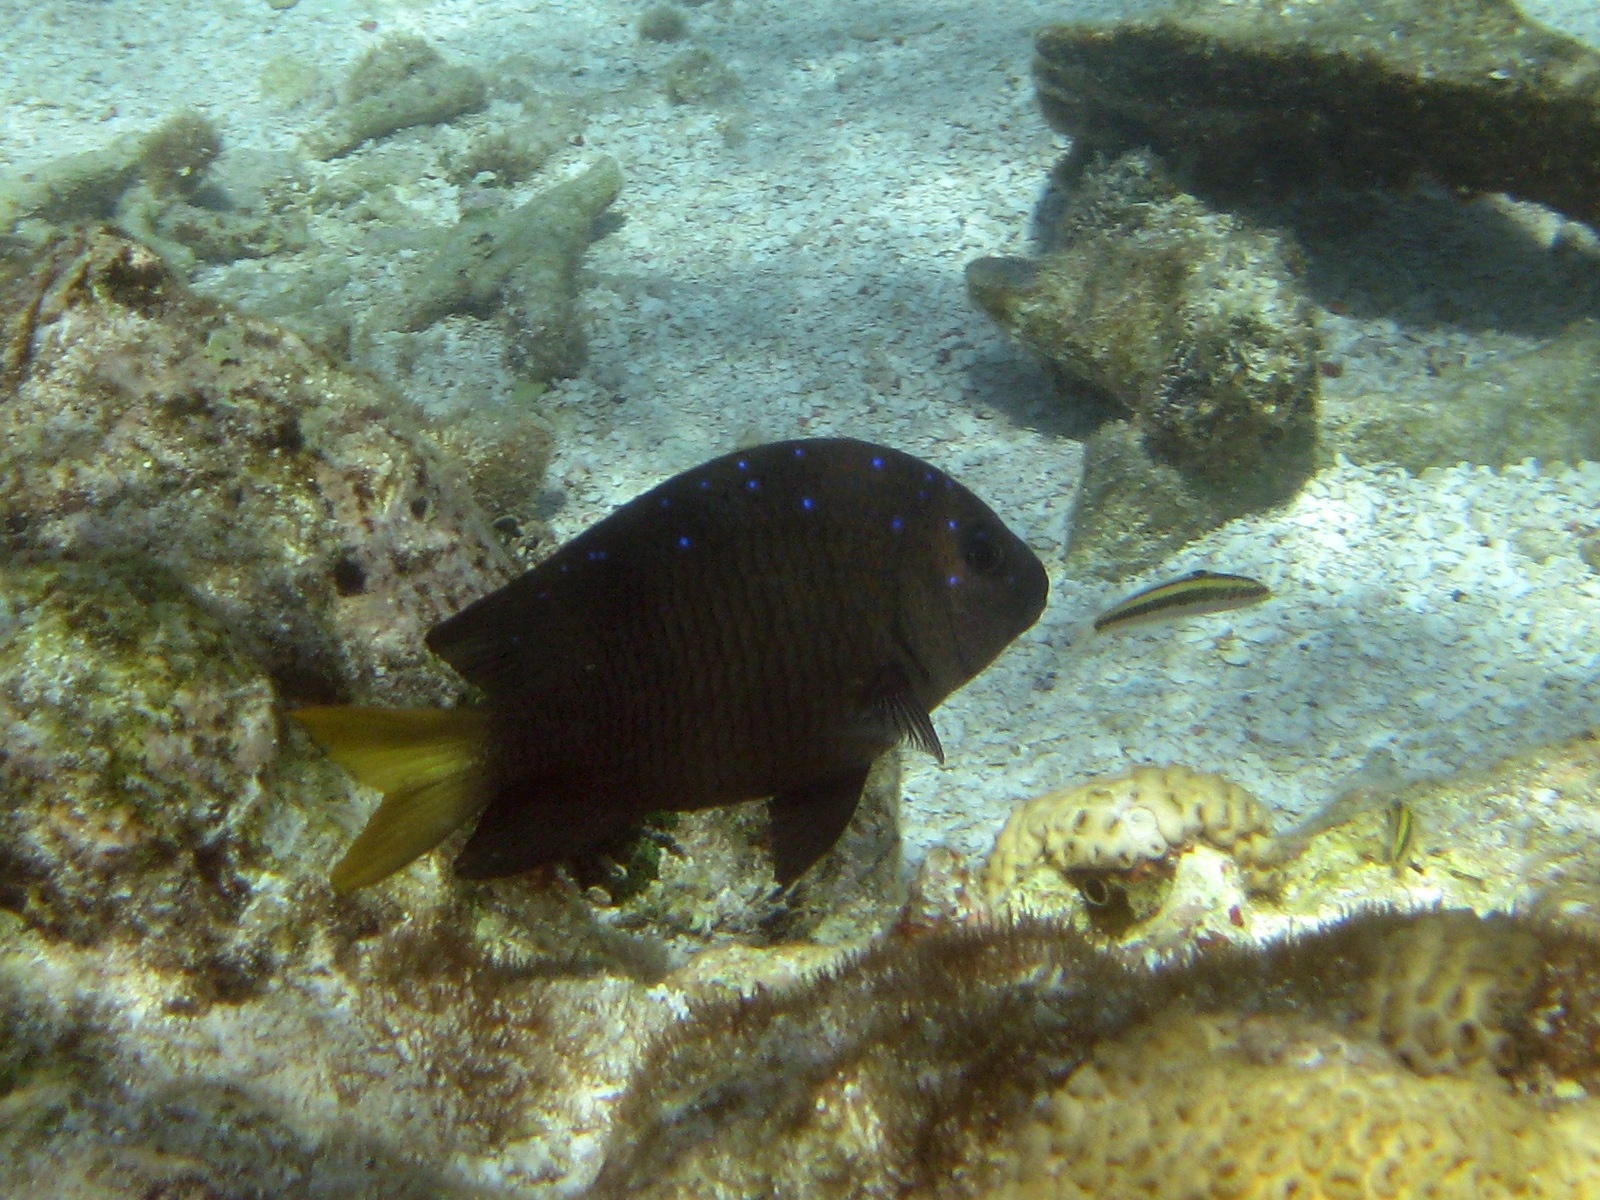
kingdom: Animalia
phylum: Chordata
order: Perciformes
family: Pomacentridae
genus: Microspathodon
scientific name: Microspathodon chrysurus
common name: Yellowtail damselfish
